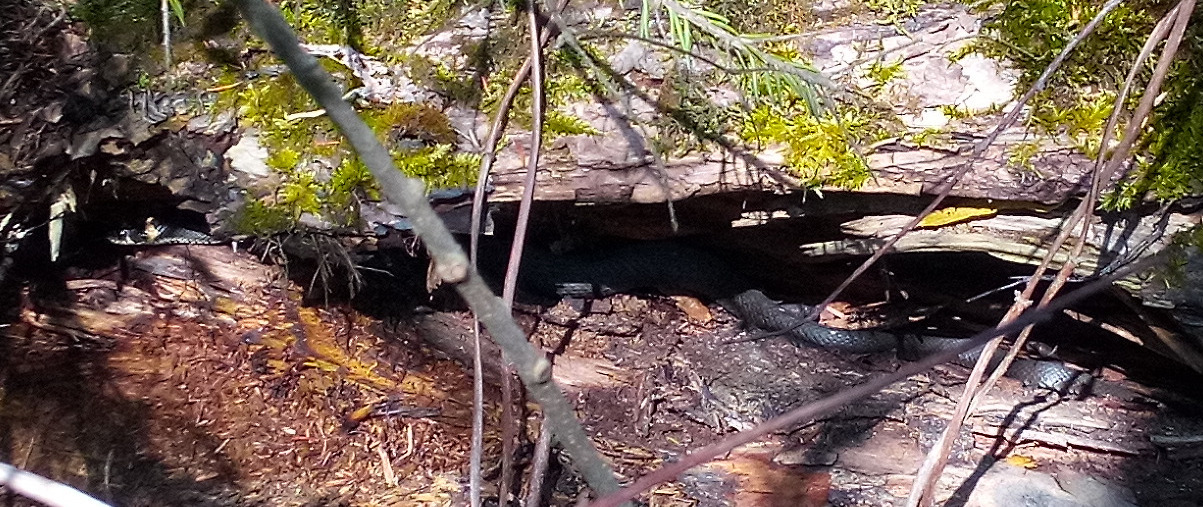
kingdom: Animalia
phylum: Chordata
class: Squamata
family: Colubridae
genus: Natrix
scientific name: Natrix natrix
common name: Grass snake
